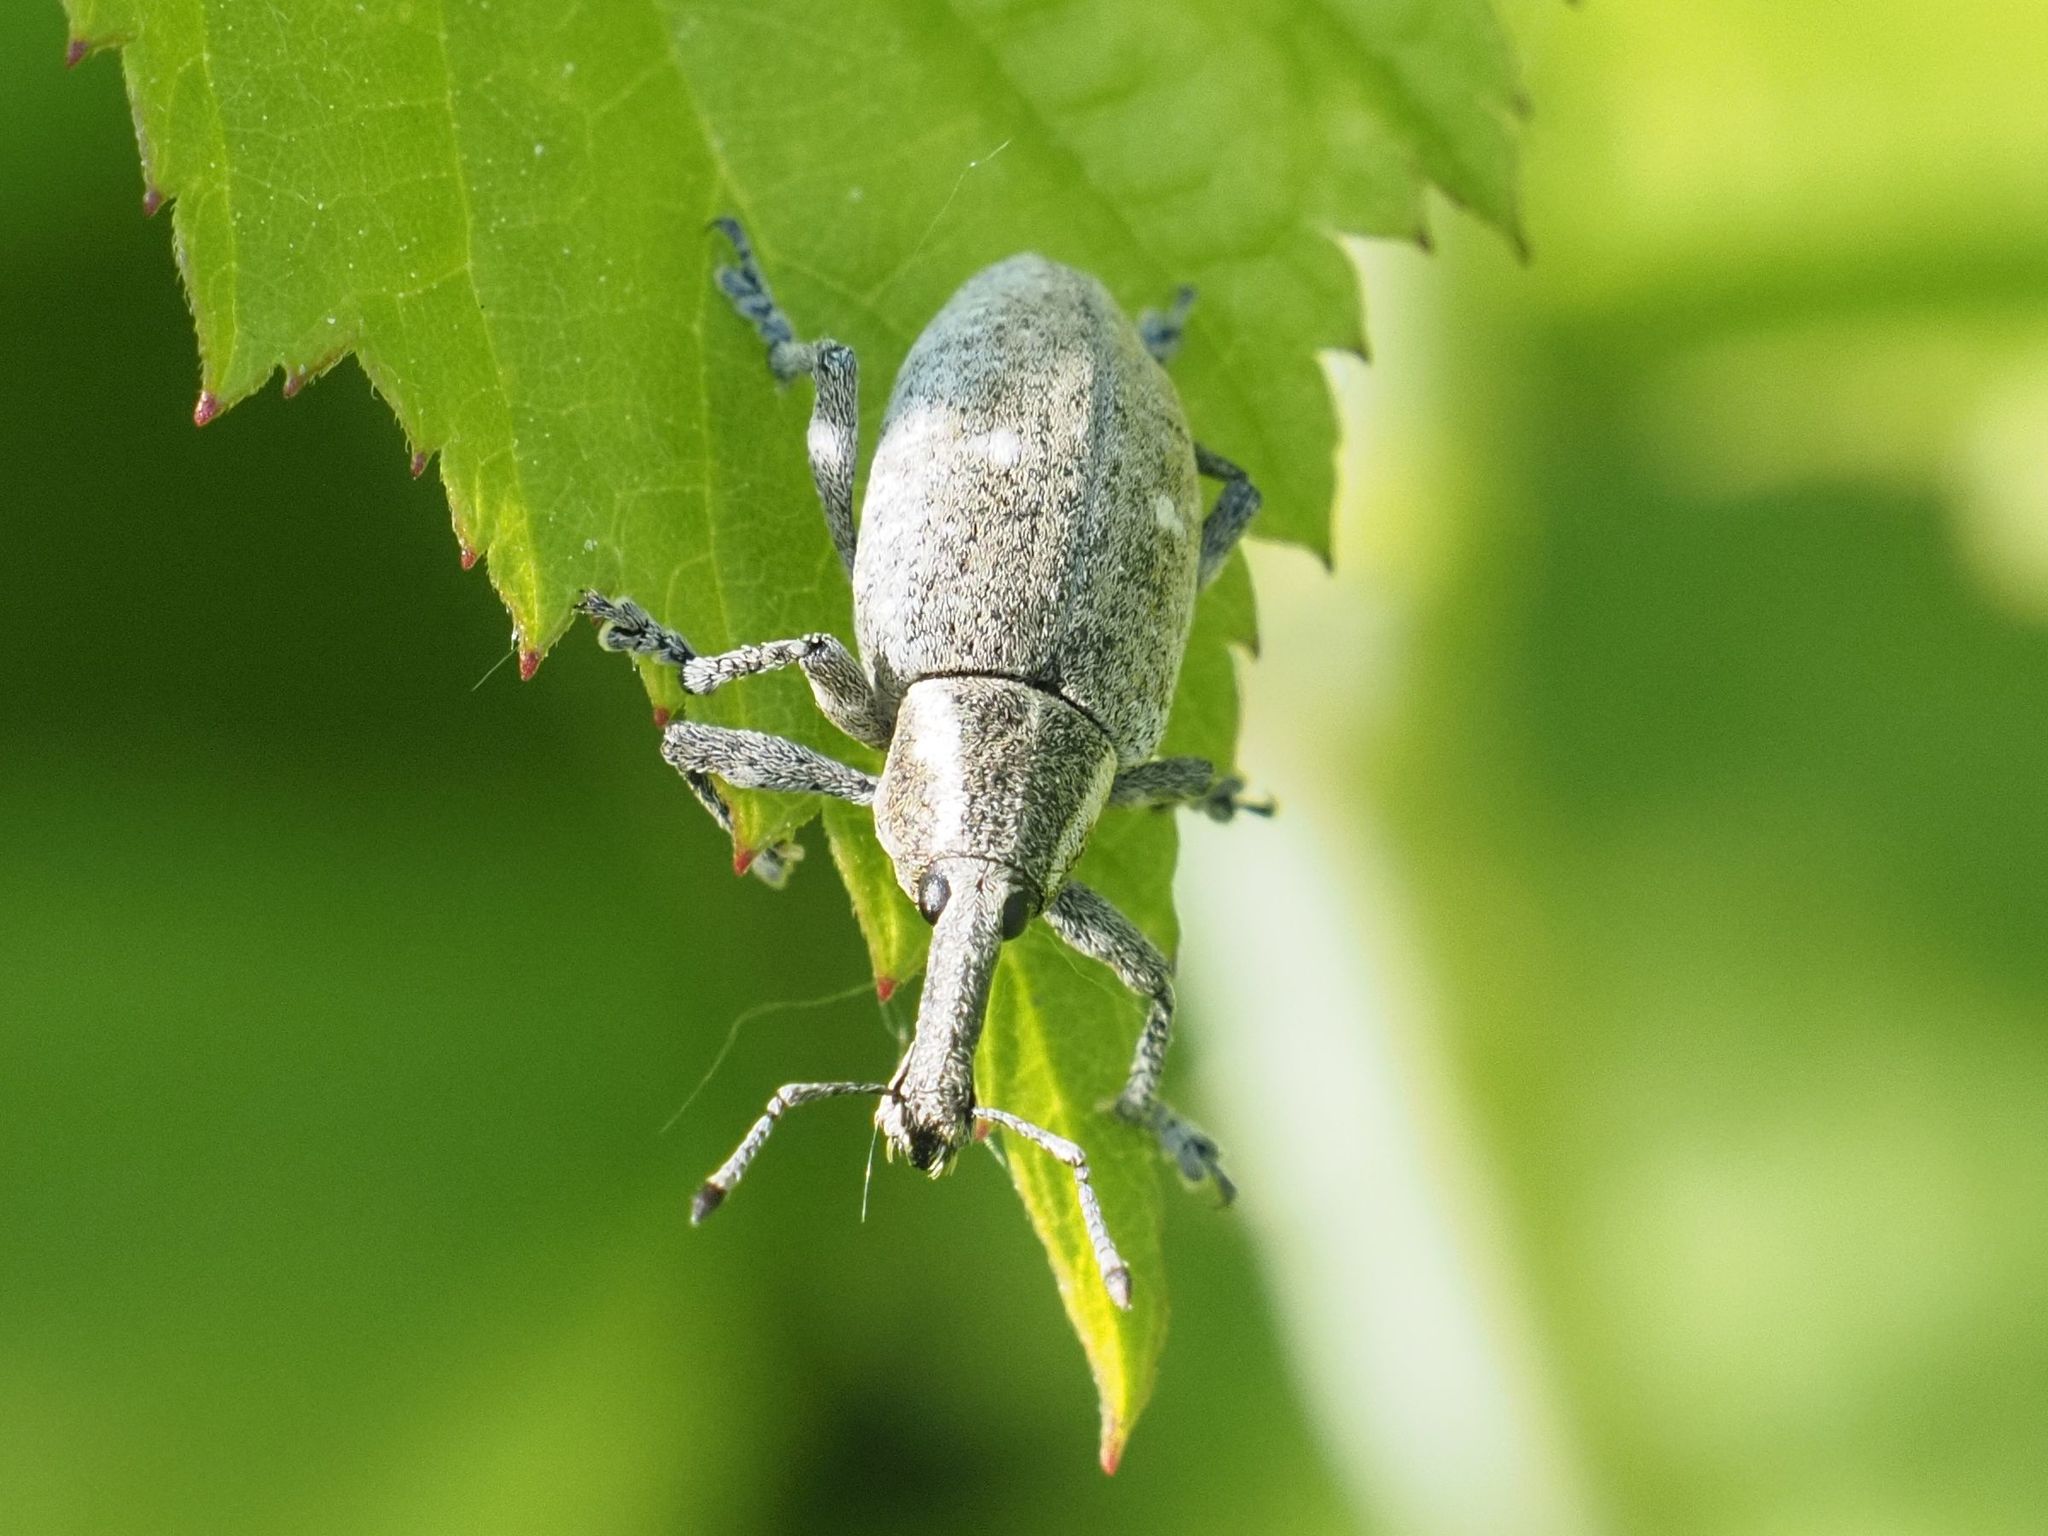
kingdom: Animalia
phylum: Arthropoda
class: Insecta
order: Coleoptera
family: Curculionidae
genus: Lepyrus
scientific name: Lepyrus palustris
